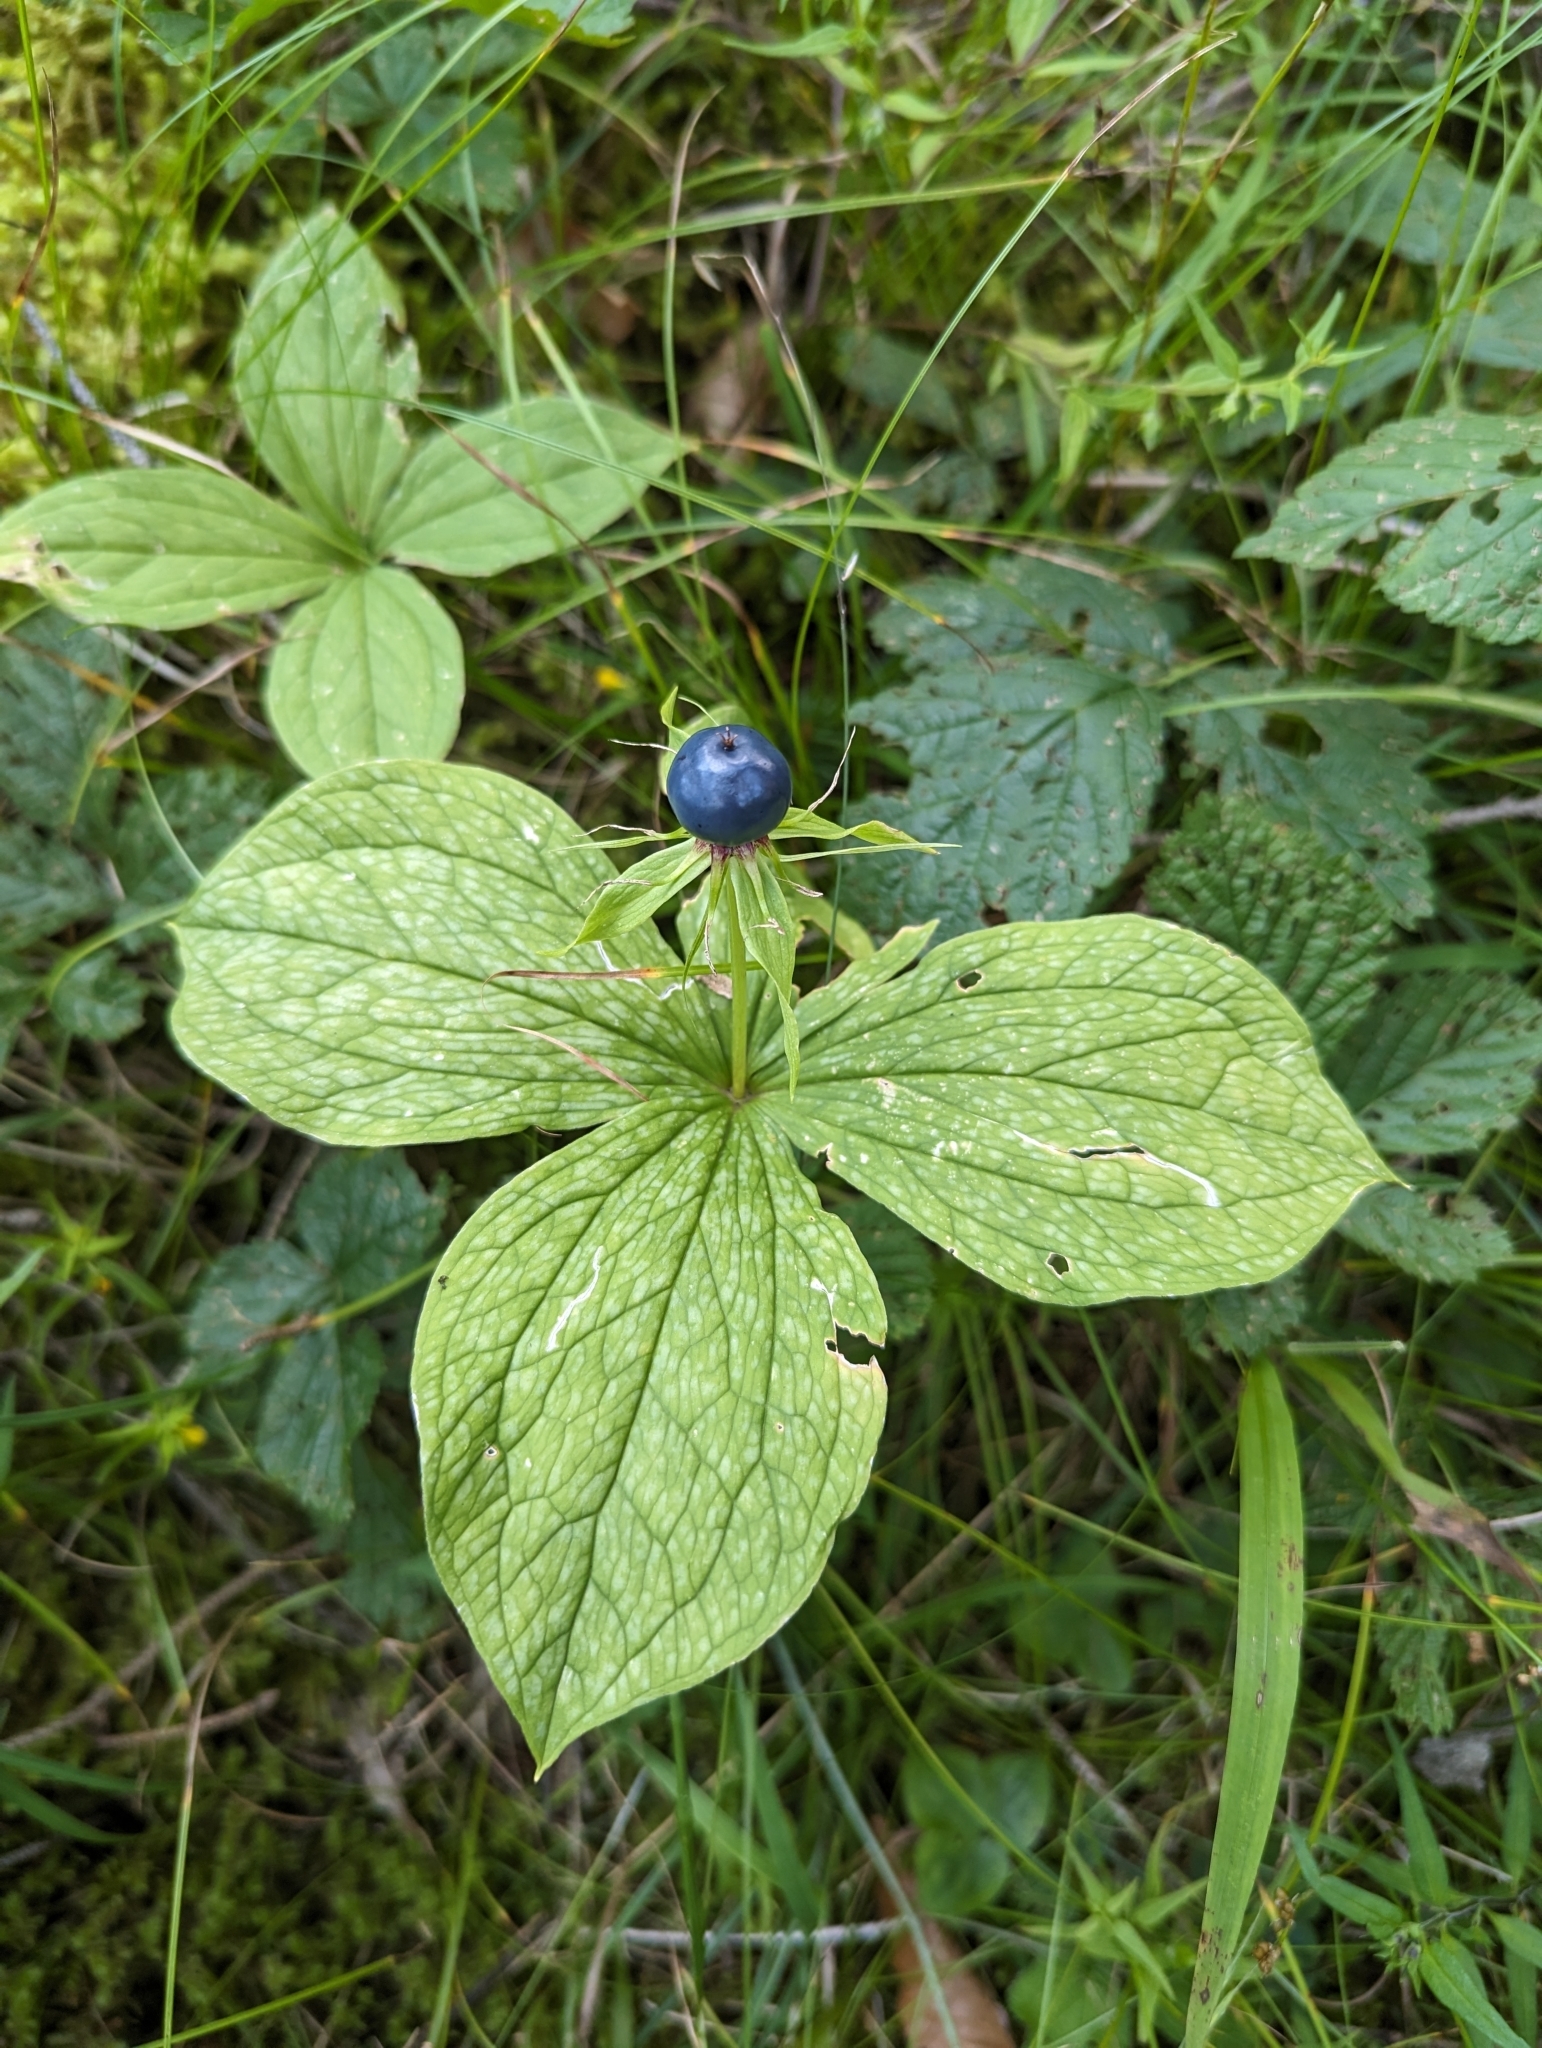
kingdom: Plantae
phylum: Tracheophyta
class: Liliopsida
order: Liliales
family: Melanthiaceae
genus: Paris
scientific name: Paris quadrifolia
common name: Herb-paris
